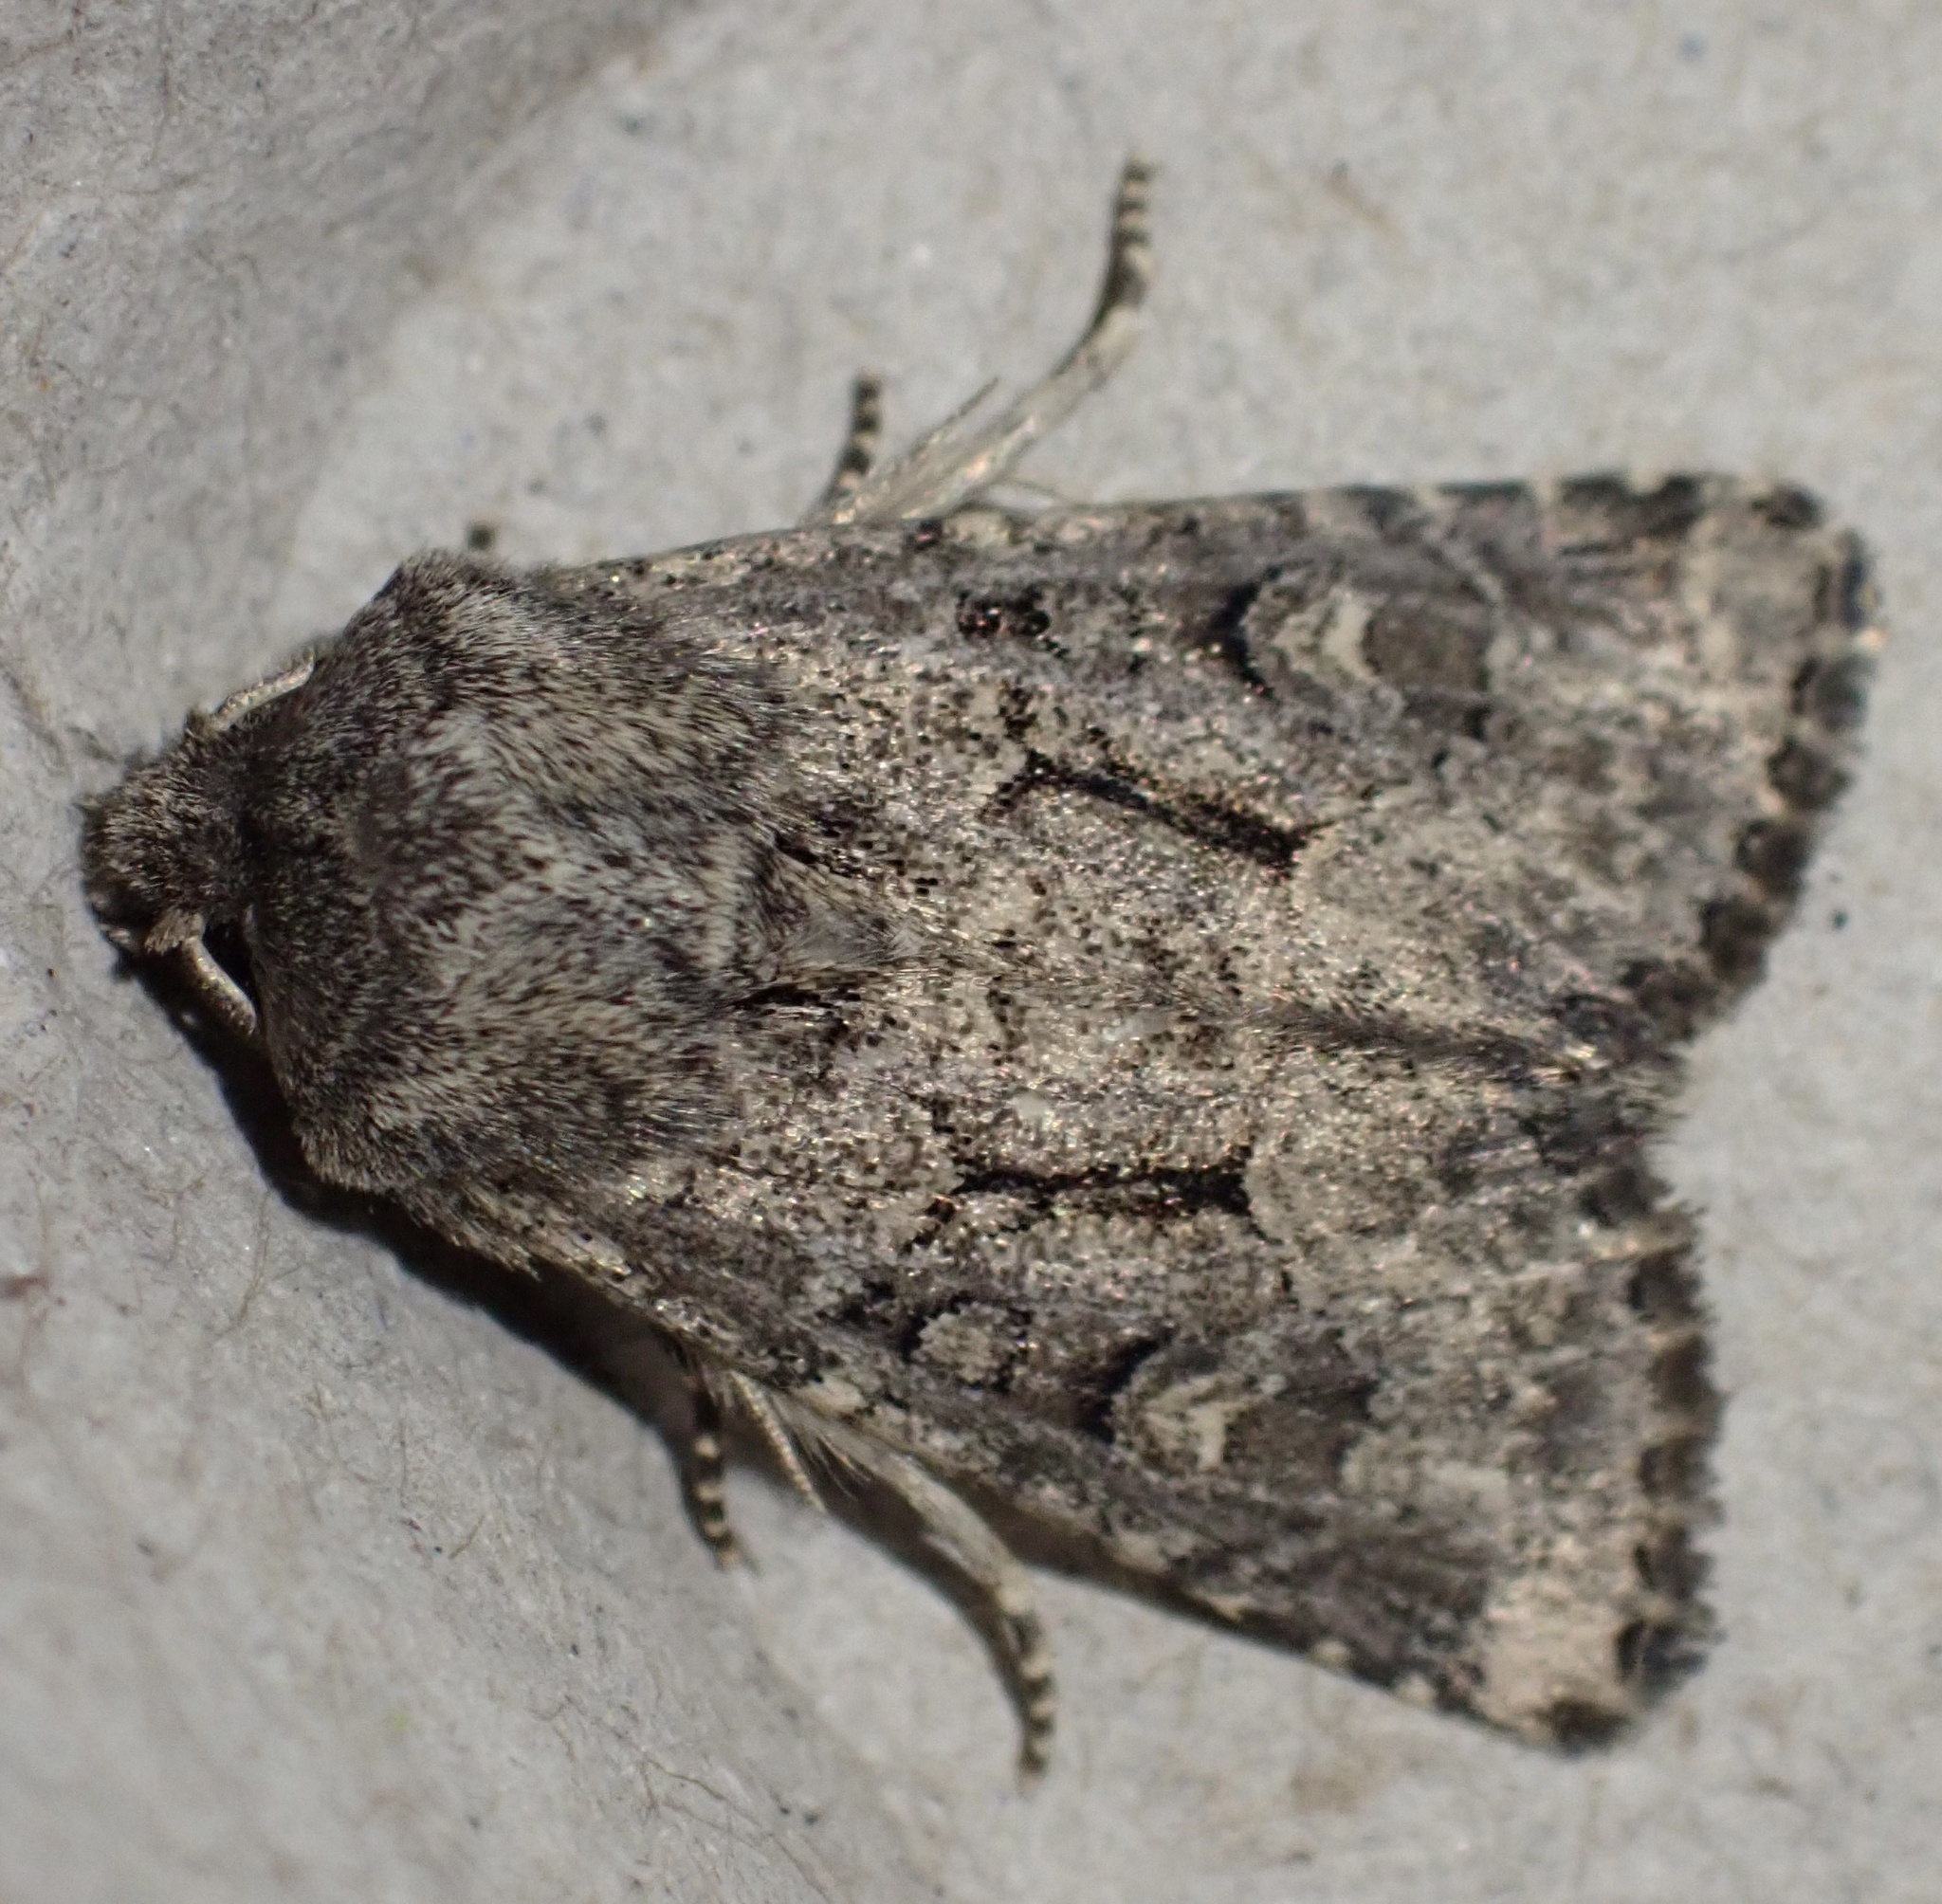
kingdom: Animalia
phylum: Arthropoda
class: Insecta
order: Lepidoptera
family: Noctuidae
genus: Luperina
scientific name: Luperina testacea
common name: Flounced rustic
